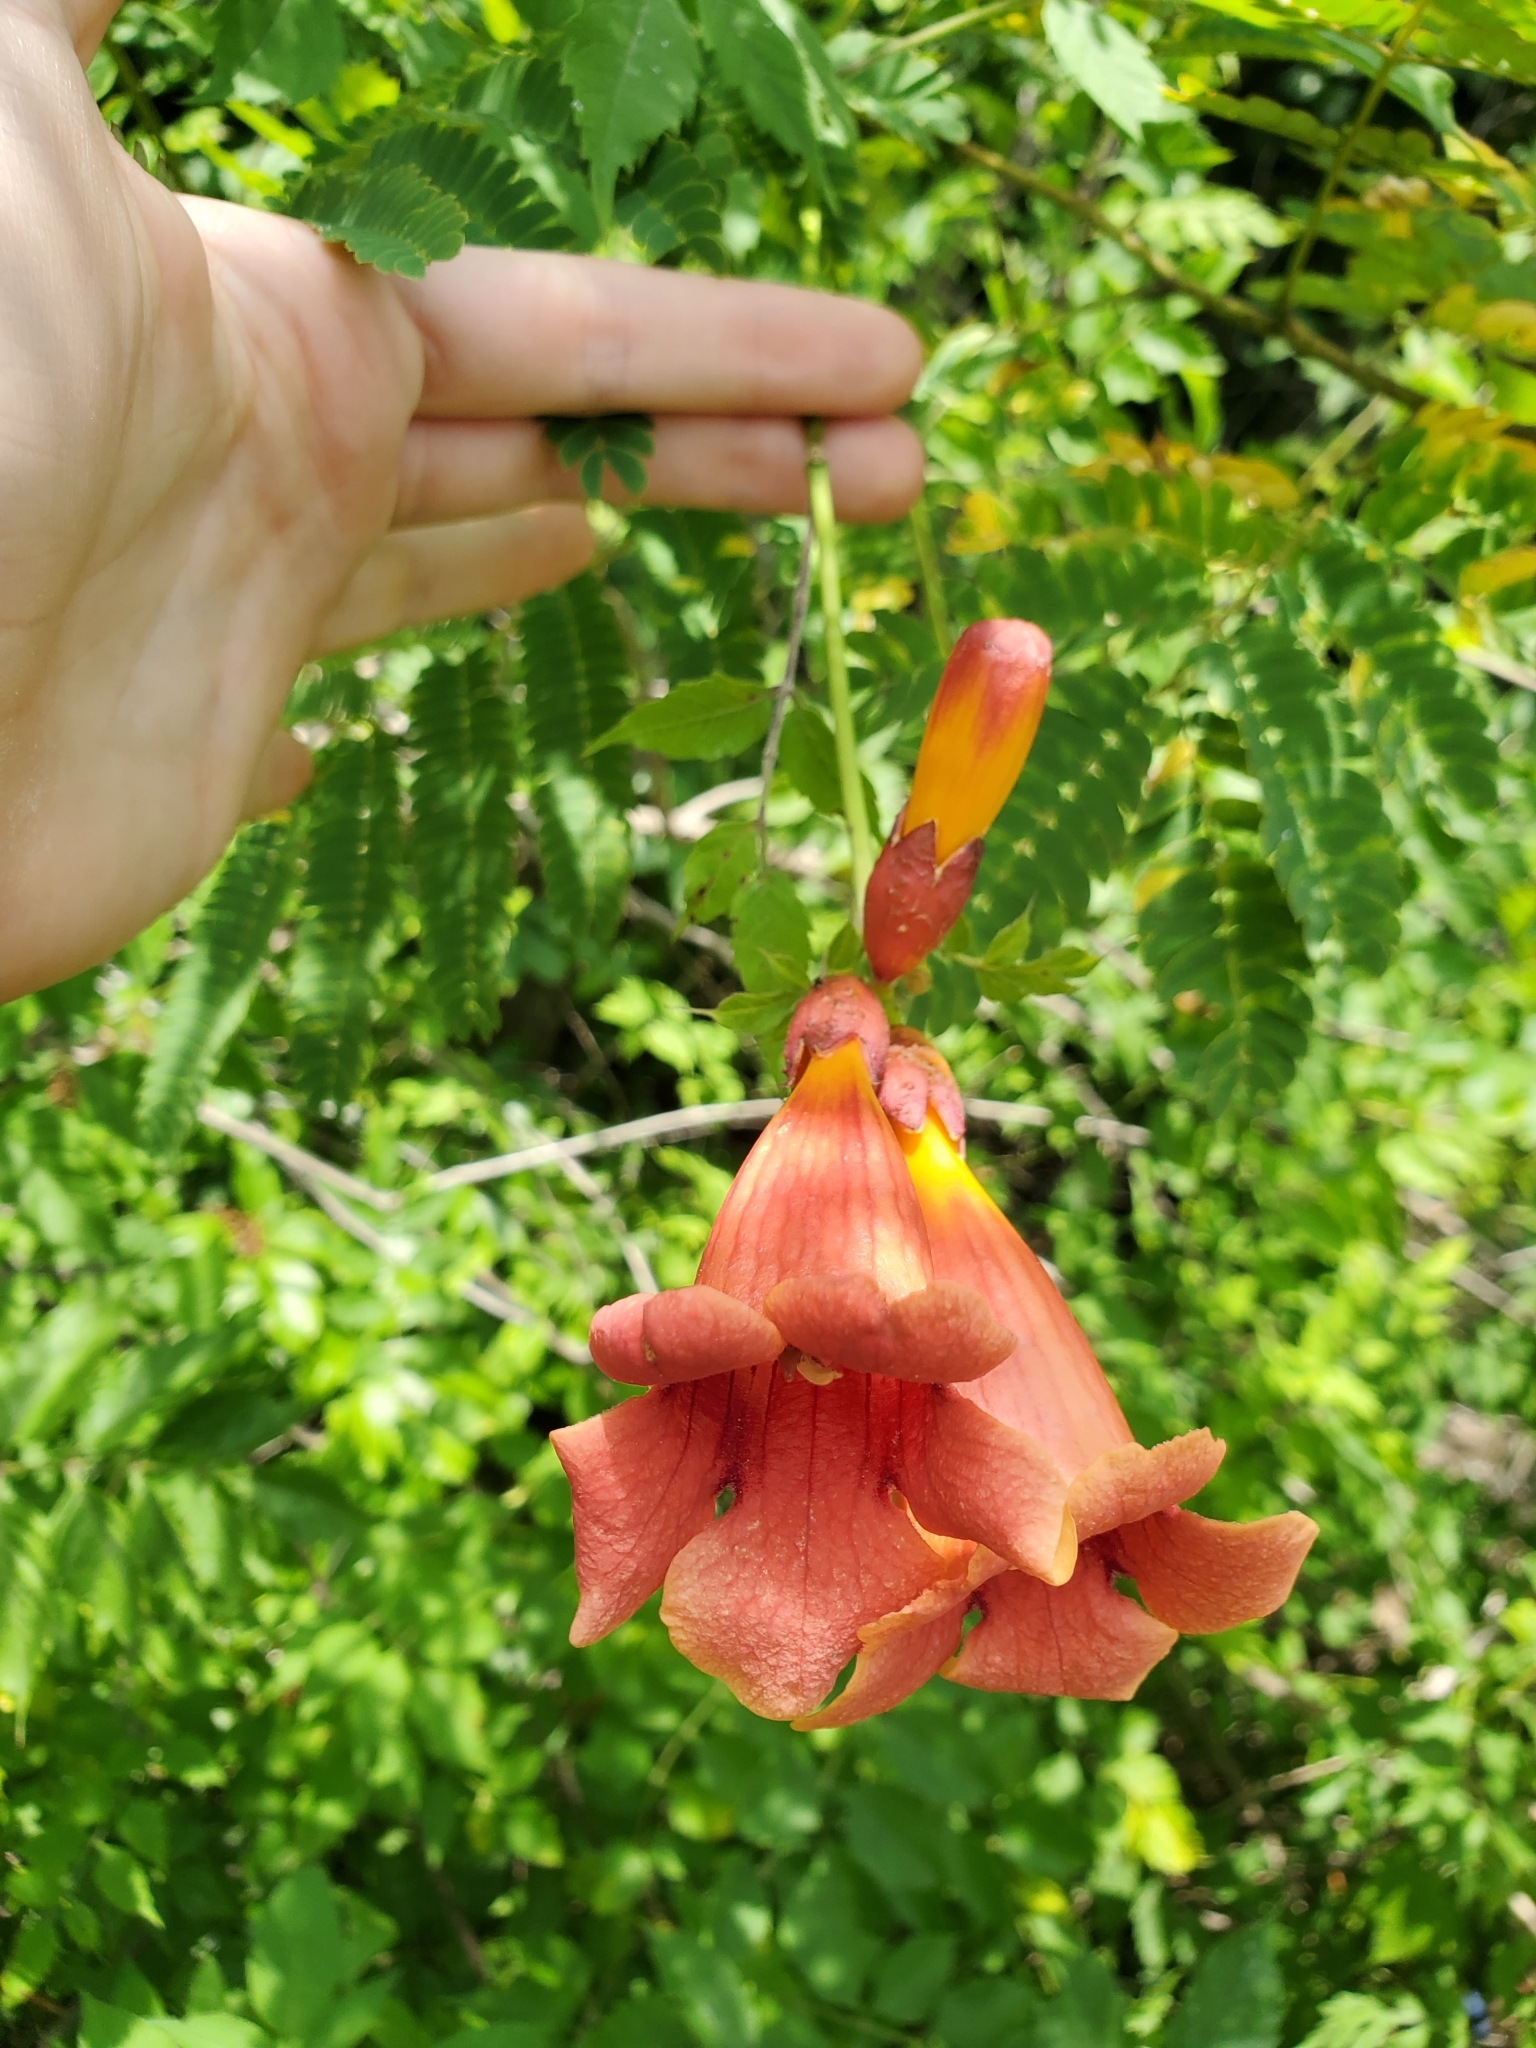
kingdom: Plantae
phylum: Tracheophyta
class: Magnoliopsida
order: Lamiales
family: Bignoniaceae
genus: Campsis
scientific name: Campsis radicans
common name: Trumpet-creeper
